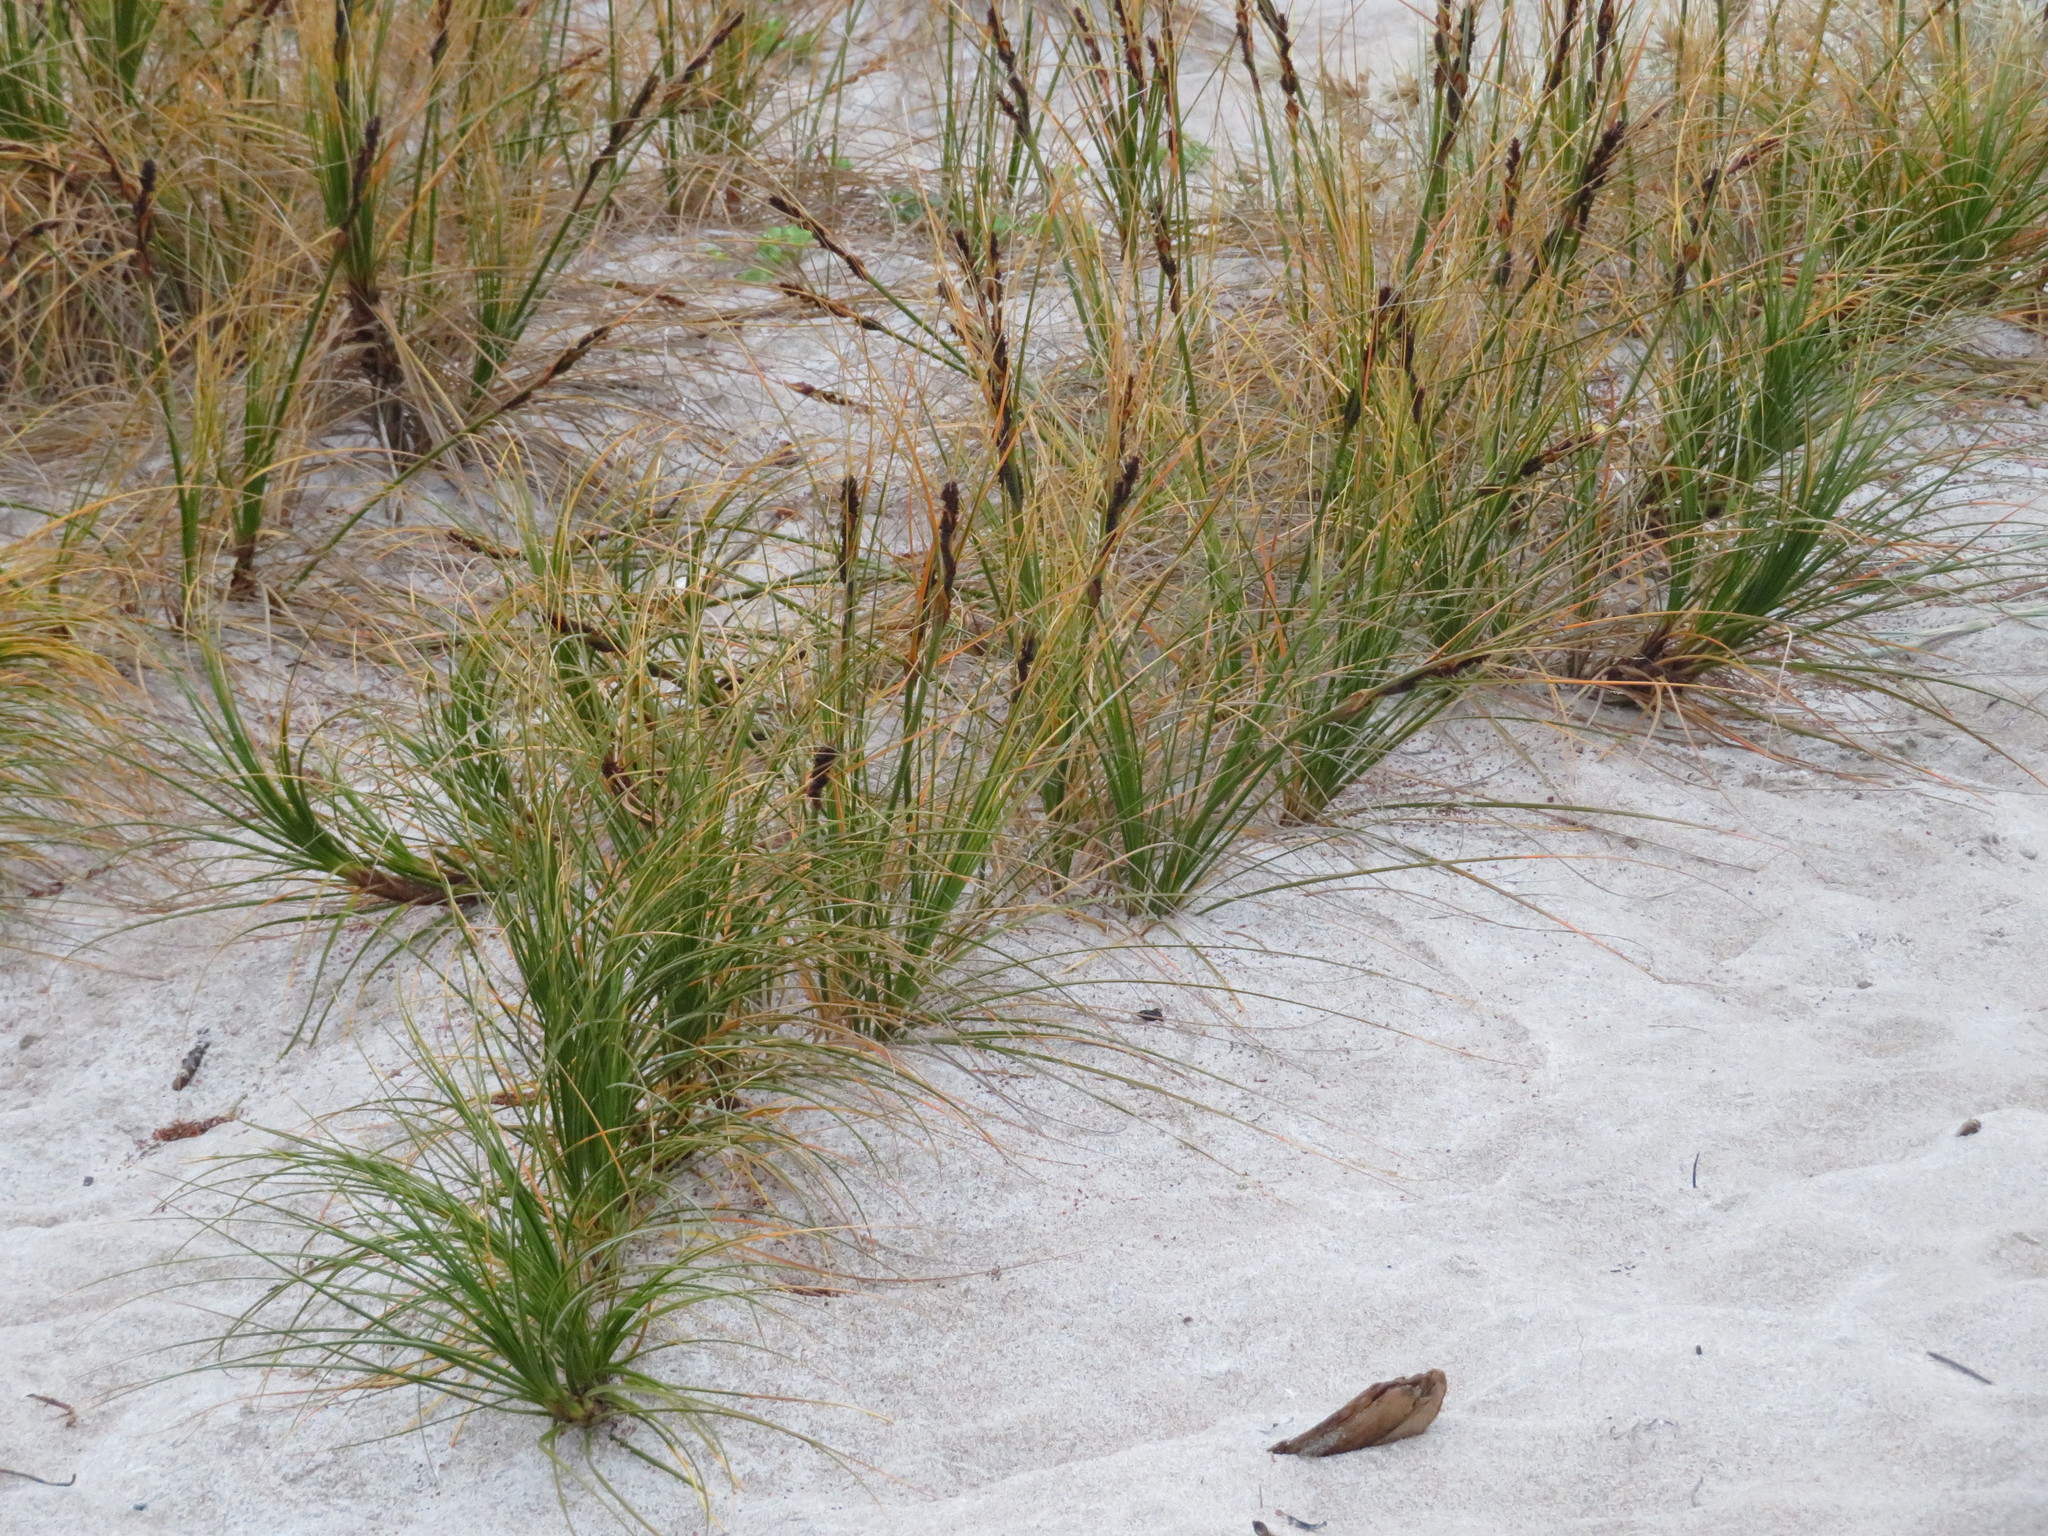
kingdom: Plantae
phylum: Tracheophyta
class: Liliopsida
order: Poales
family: Cyperaceae
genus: Ficinia
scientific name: Ficinia spiralis
